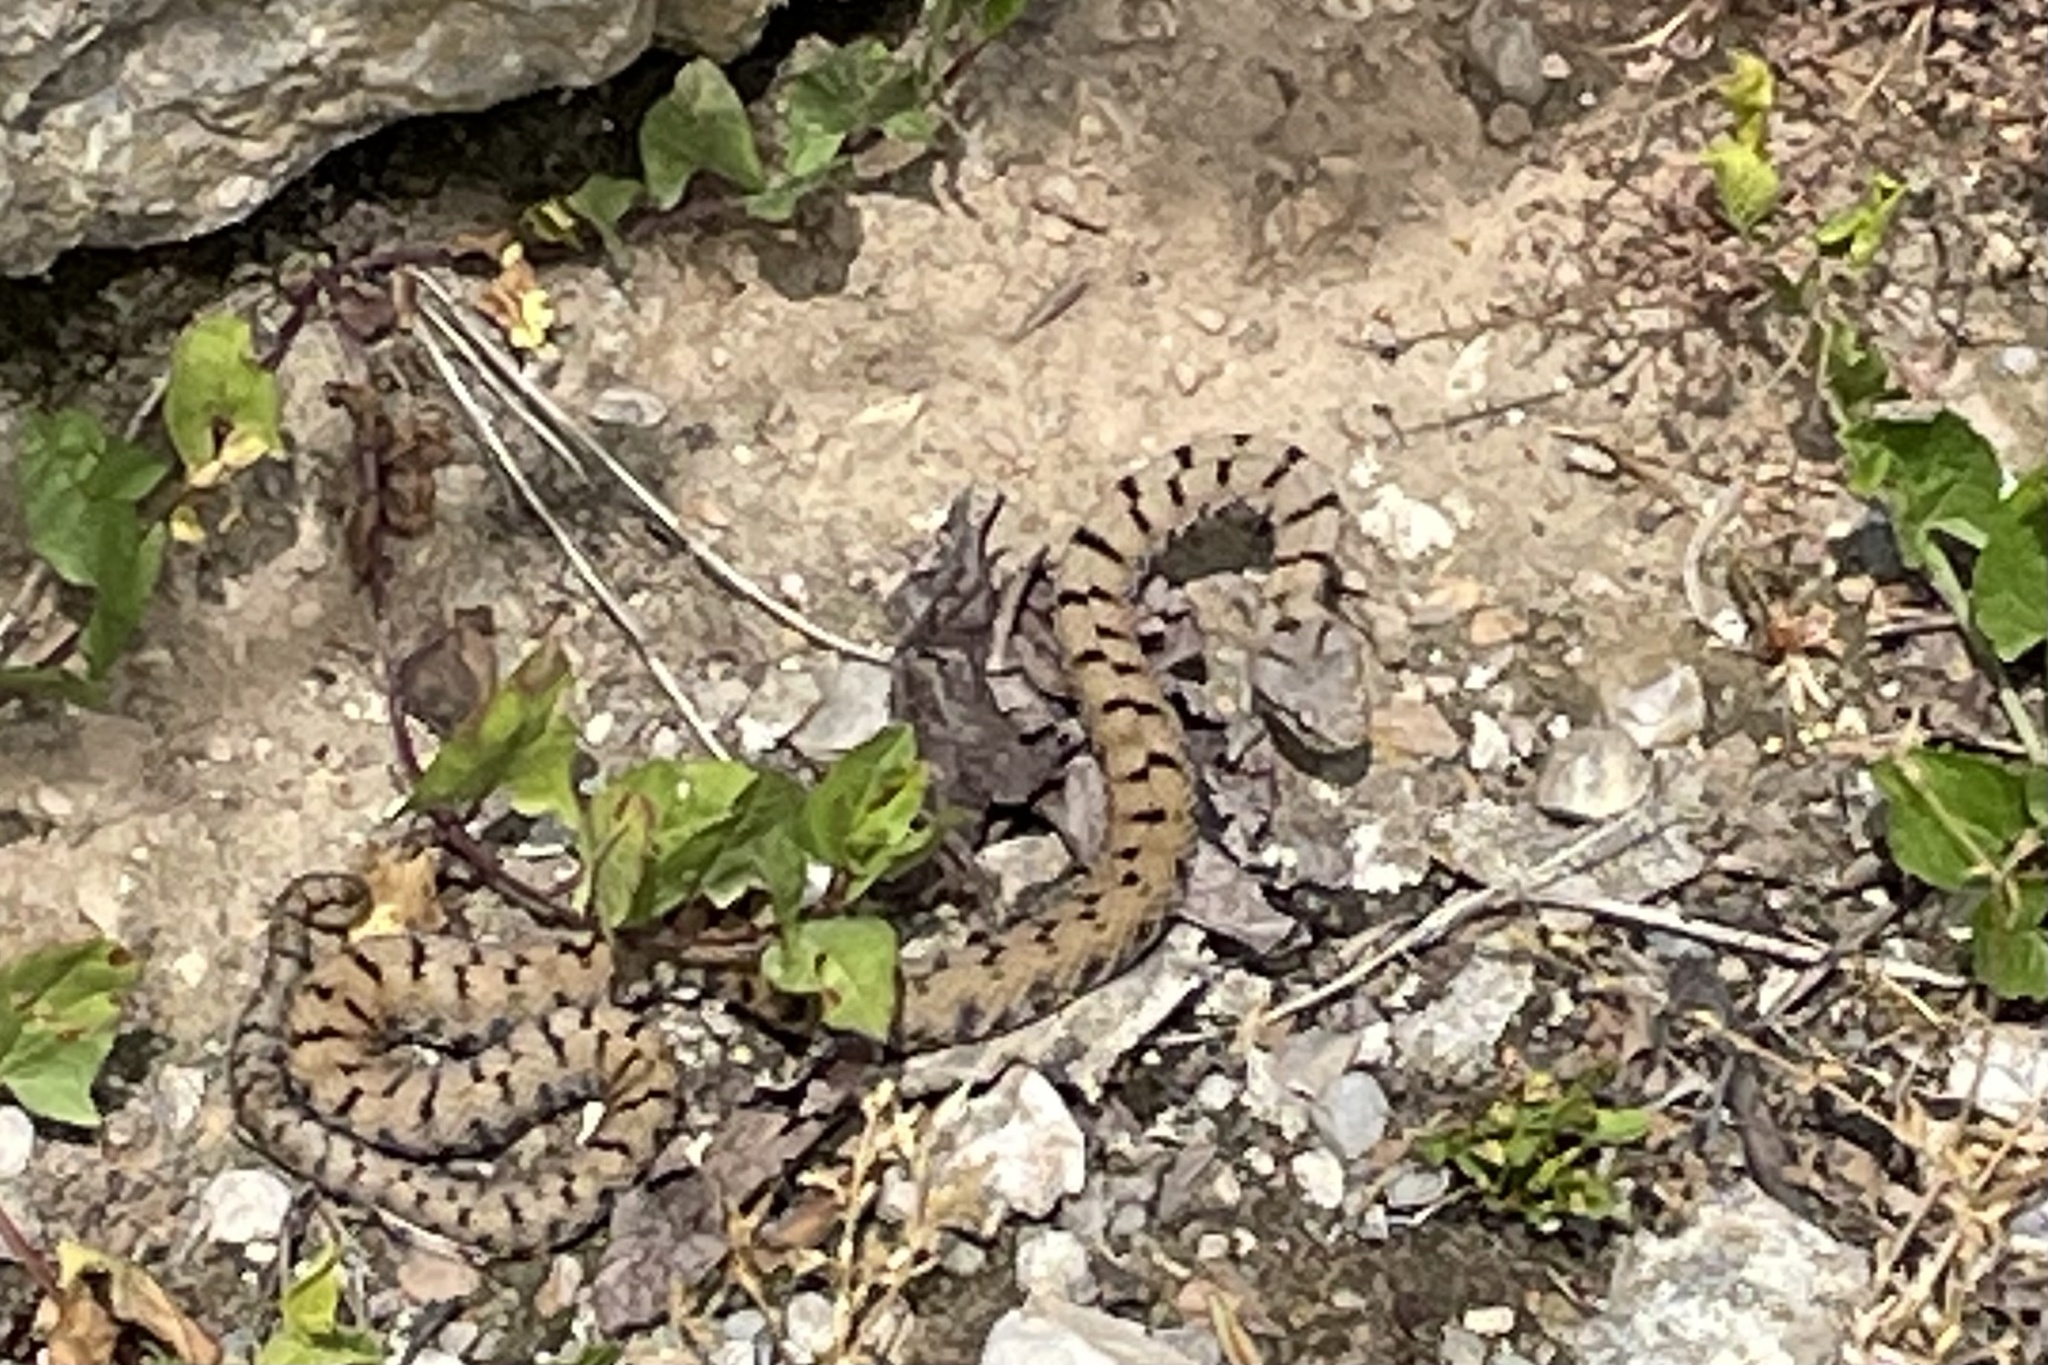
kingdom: Animalia
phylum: Chordata
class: Squamata
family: Viperidae
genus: Vipera
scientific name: Vipera aspis
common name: Asp viper
